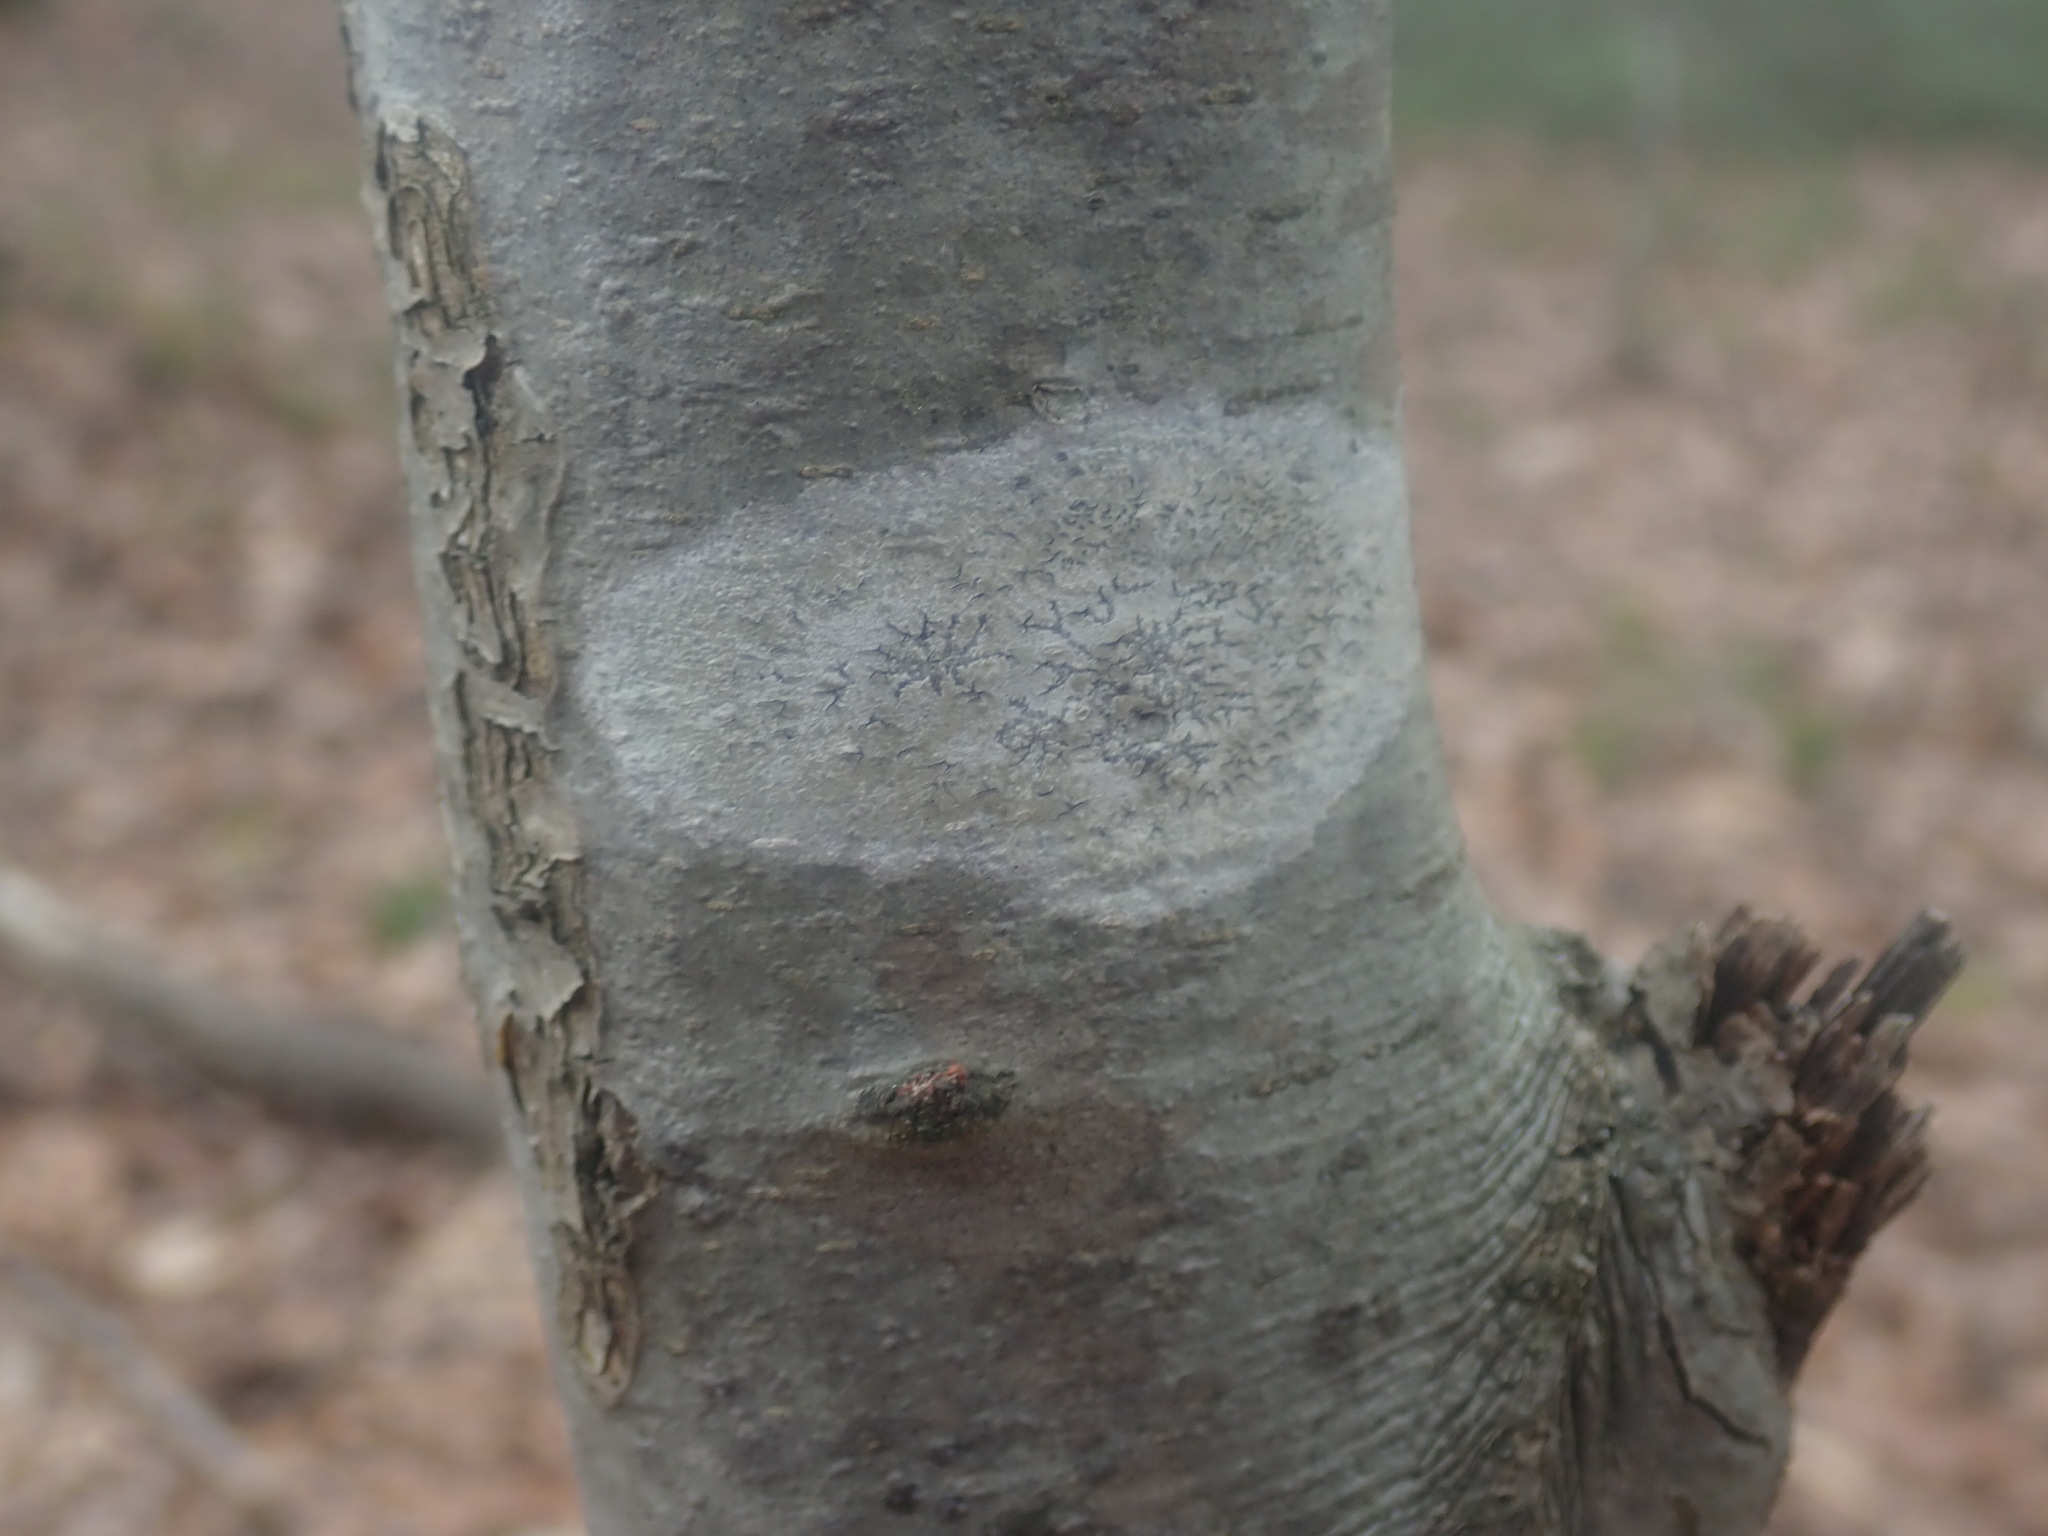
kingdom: Fungi
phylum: Ascomycota
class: Lecanoromycetes
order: Ostropales
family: Graphidaceae
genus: Graphis
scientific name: Graphis scripta
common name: Script lichen
